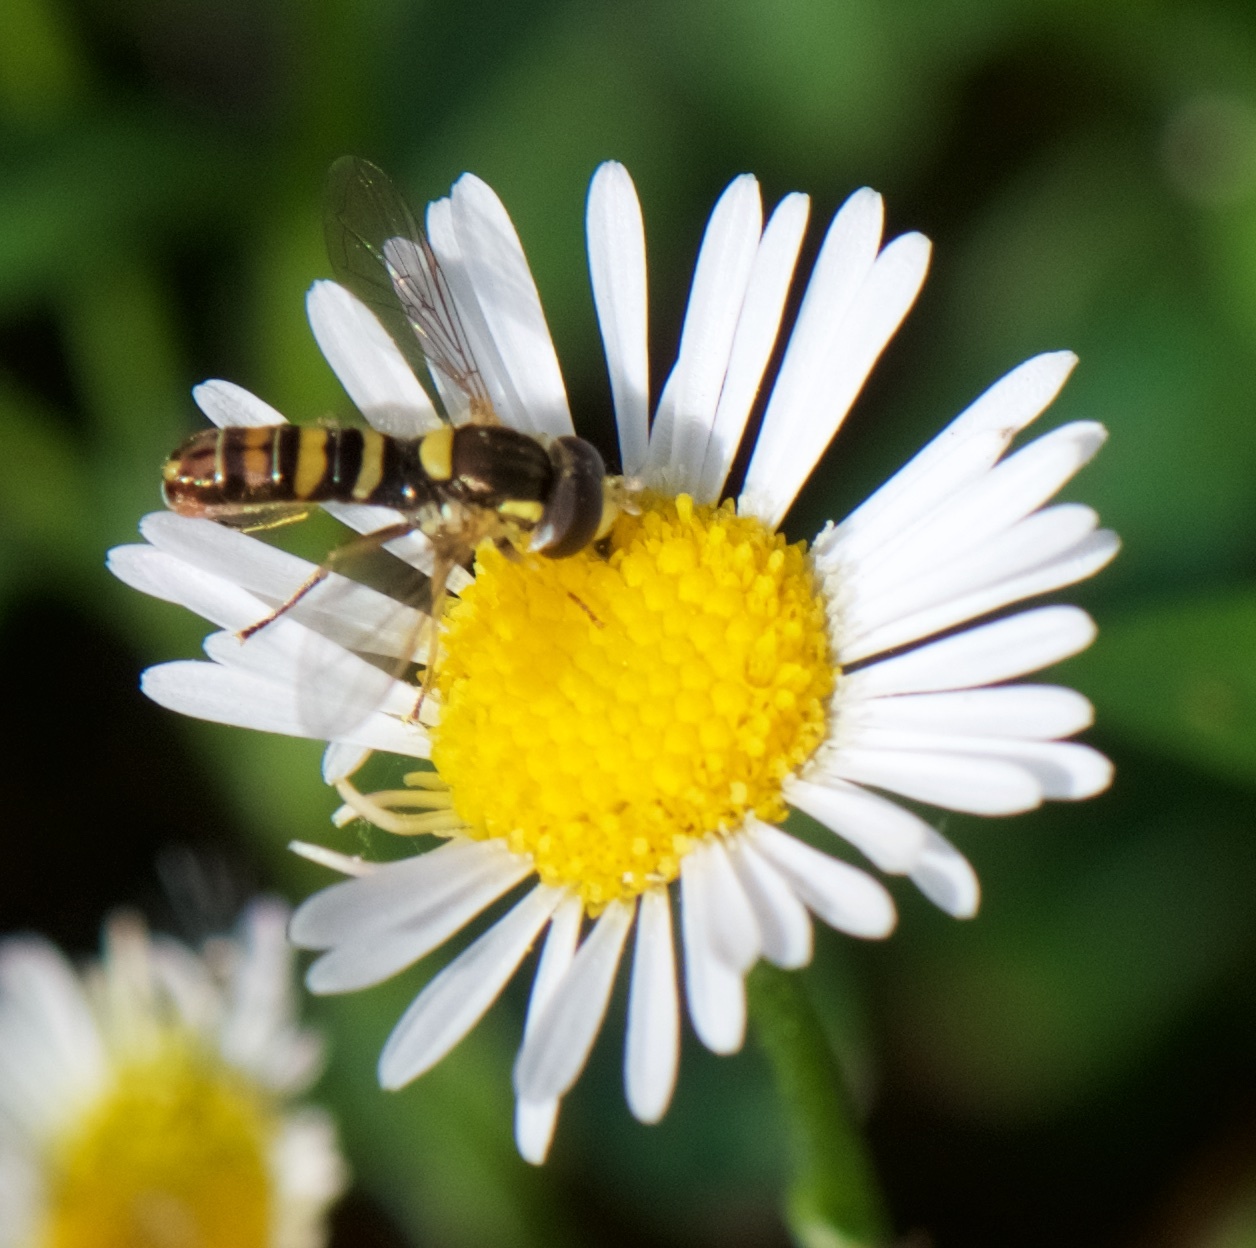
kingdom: Animalia
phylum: Arthropoda
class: Insecta
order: Diptera
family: Syrphidae
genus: Sphaerophoria
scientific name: Sphaerophoria sulphuripes
